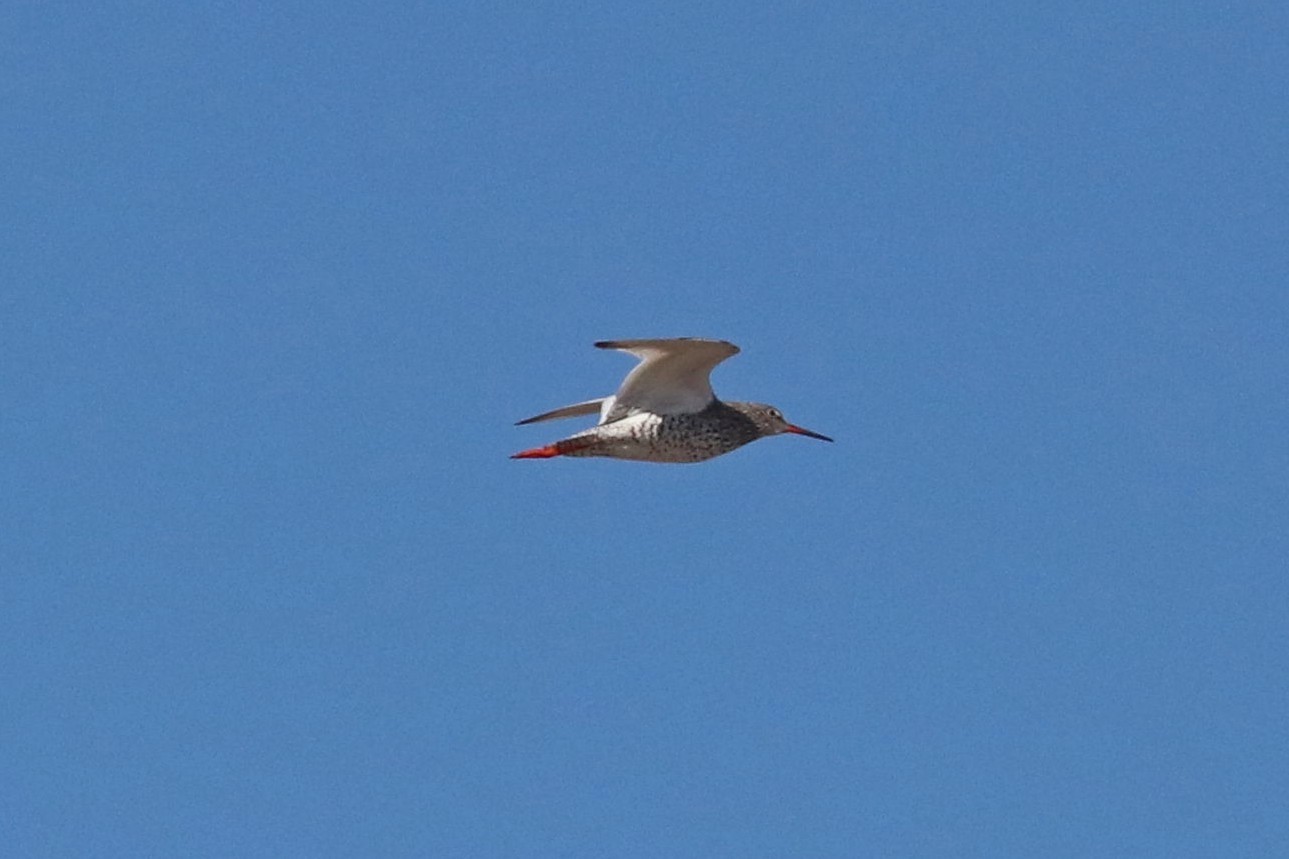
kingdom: Animalia
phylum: Chordata
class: Aves
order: Charadriiformes
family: Scolopacidae
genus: Tringa
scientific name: Tringa totanus
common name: Common redshank
